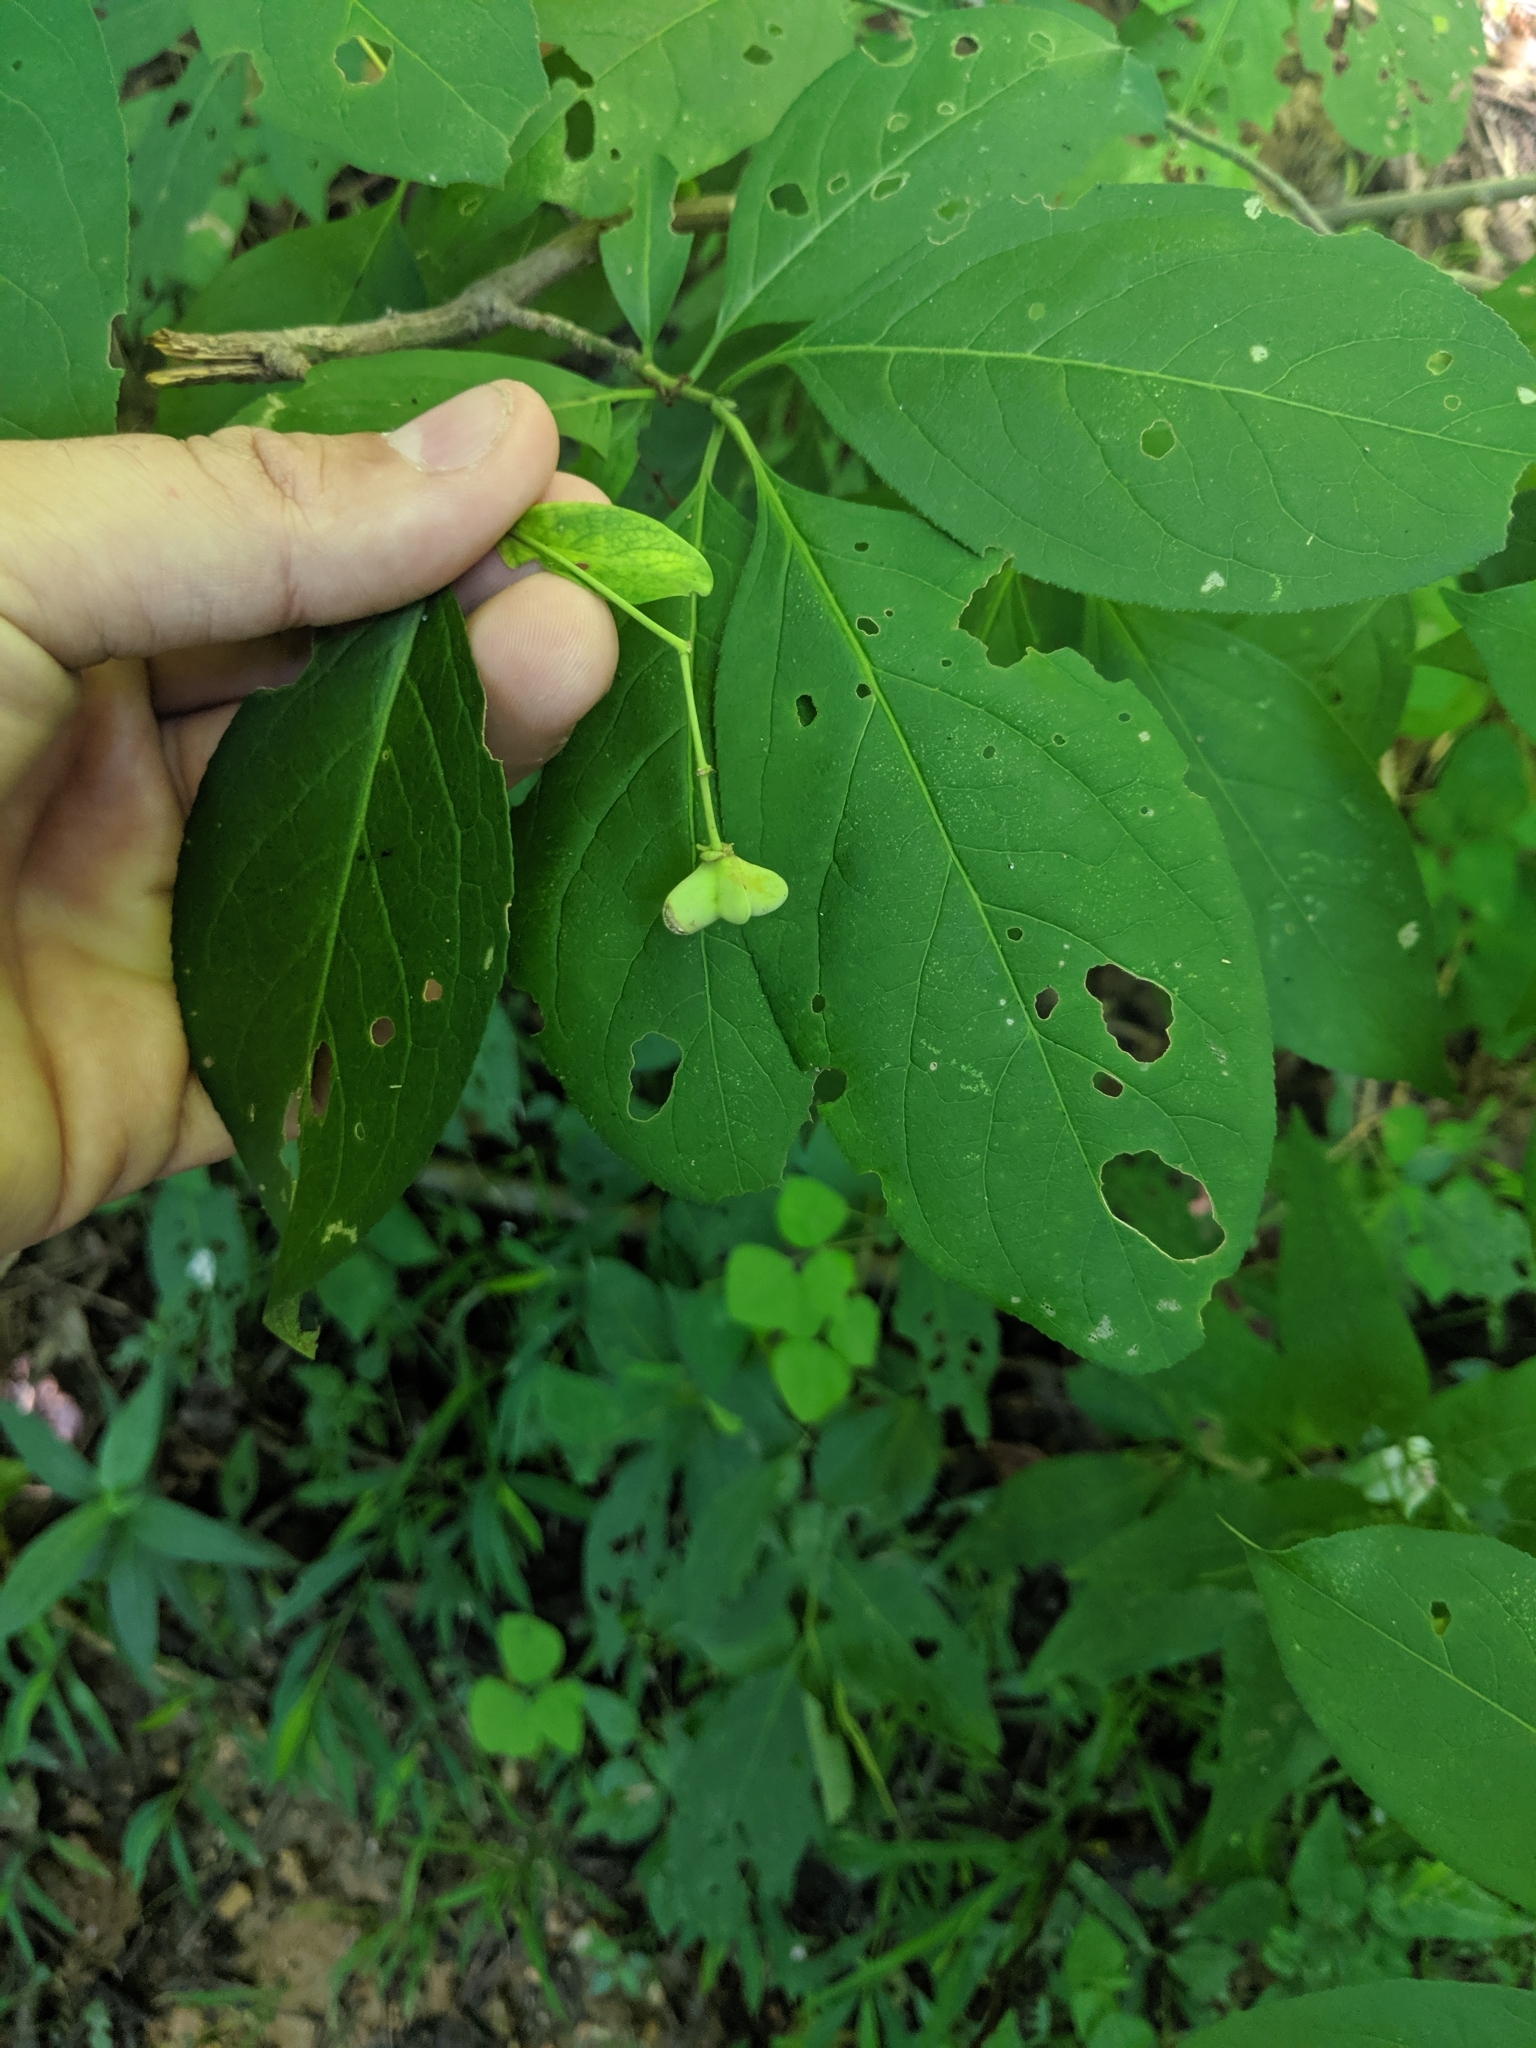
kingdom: Plantae
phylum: Tracheophyta
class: Magnoliopsida
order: Celastrales
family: Celastraceae
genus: Euonymus
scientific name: Euonymus atropurpureus
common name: Eastern wahoo
